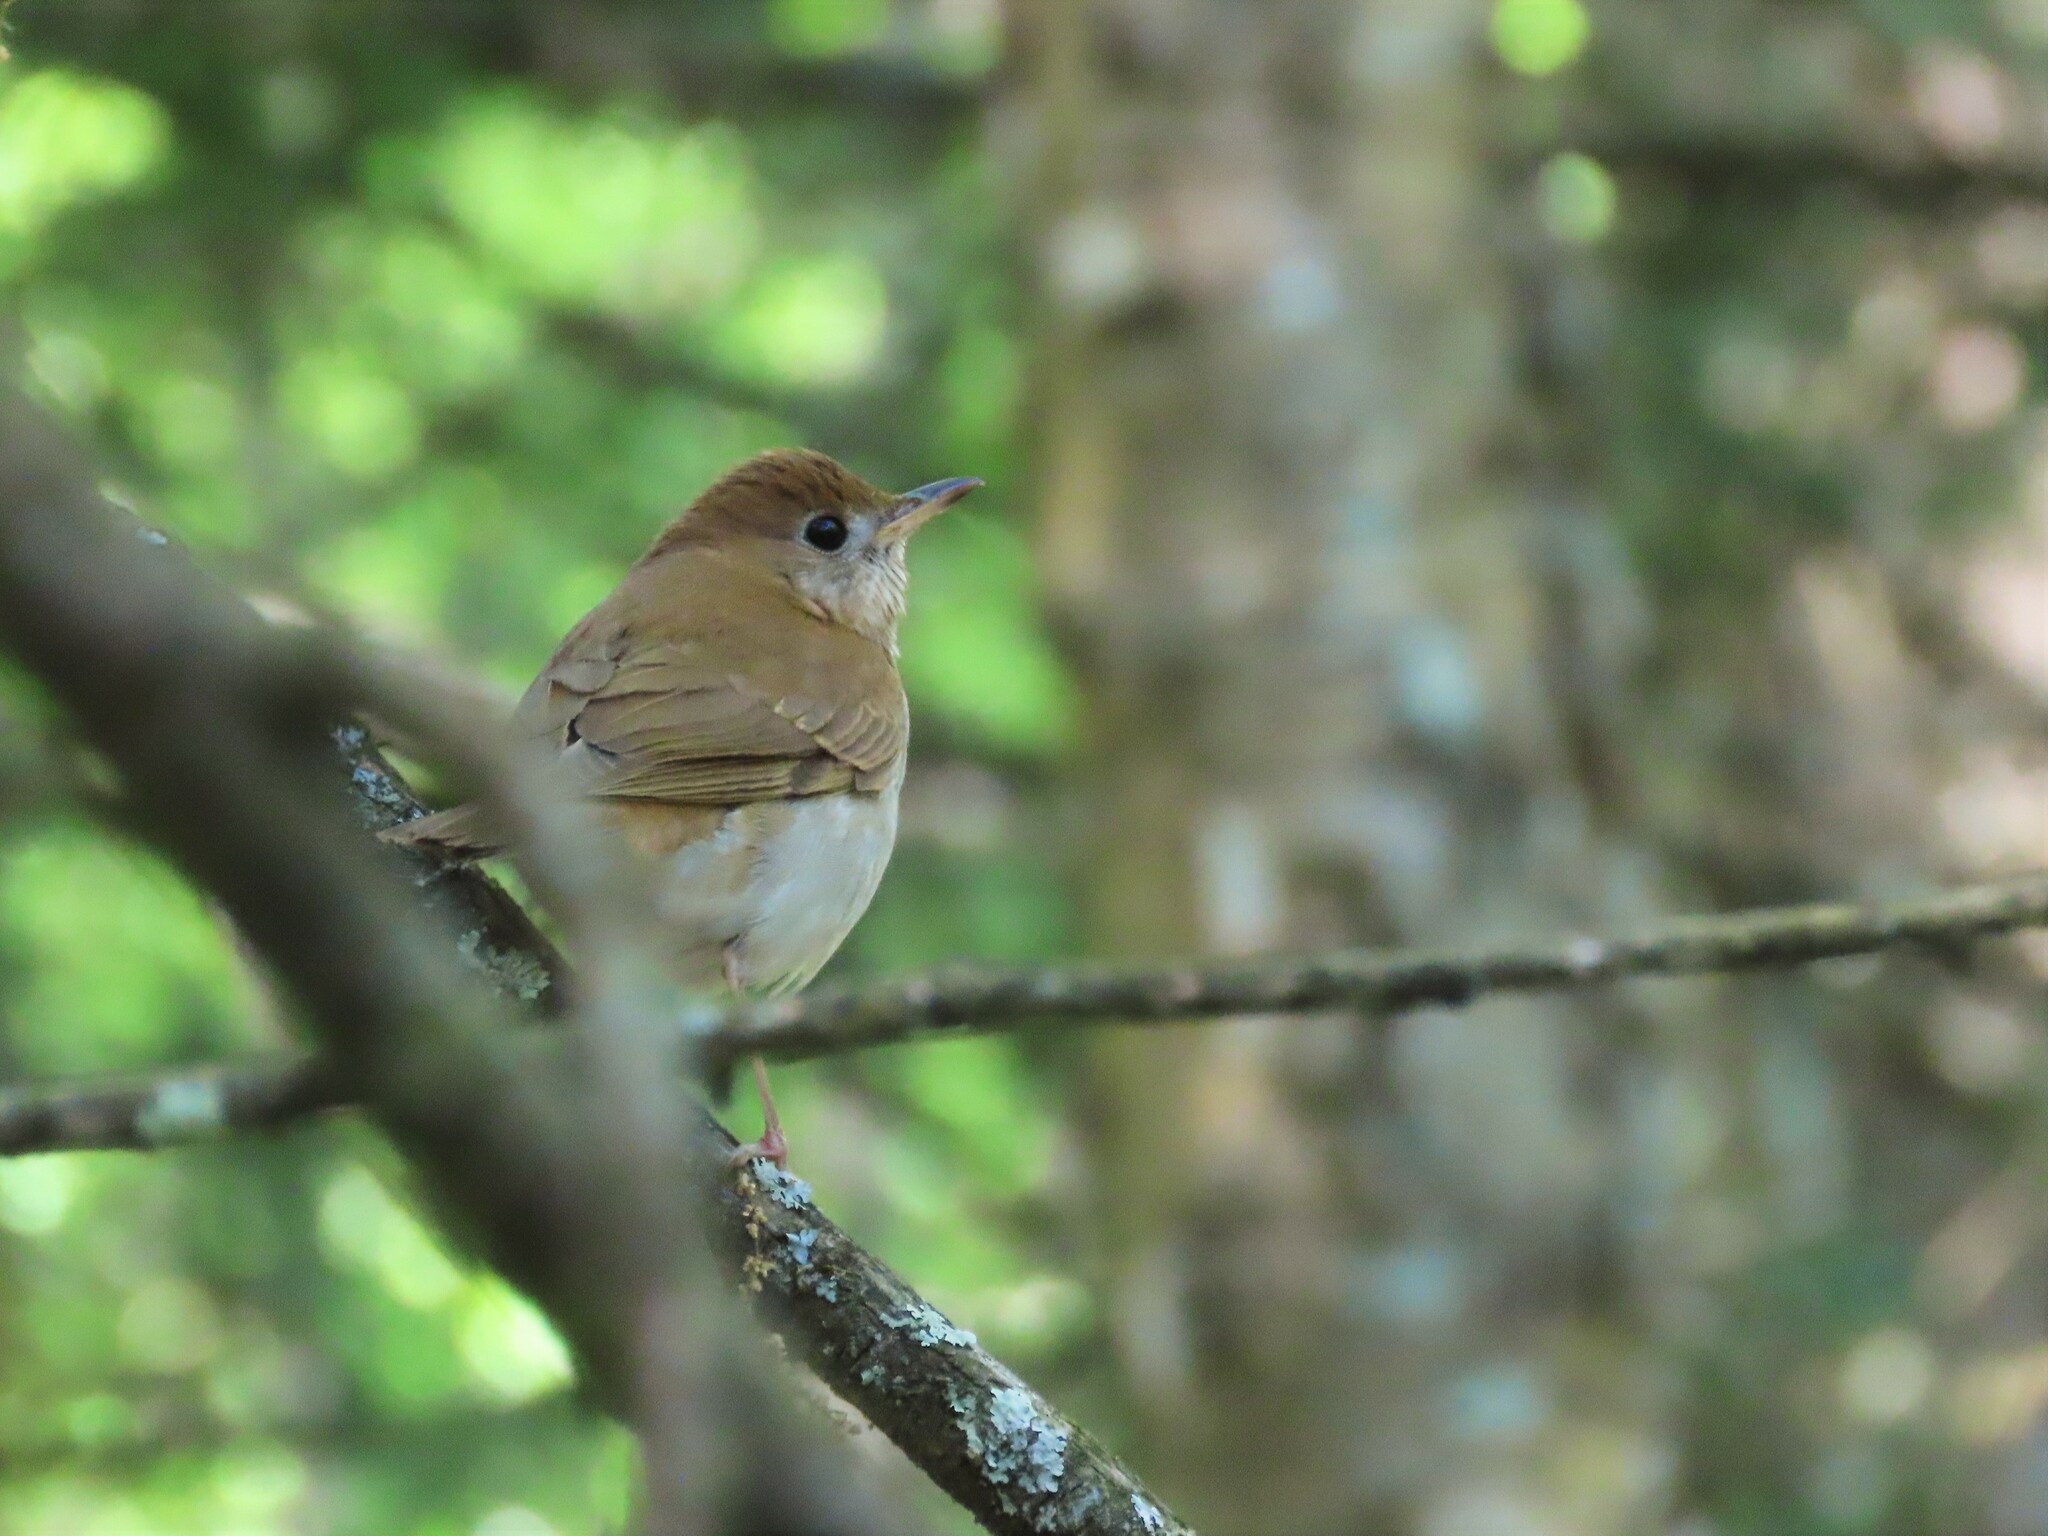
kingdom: Animalia
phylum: Chordata
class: Aves
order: Passeriformes
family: Turdidae
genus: Catharus
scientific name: Catharus fuscescens
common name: Veery
